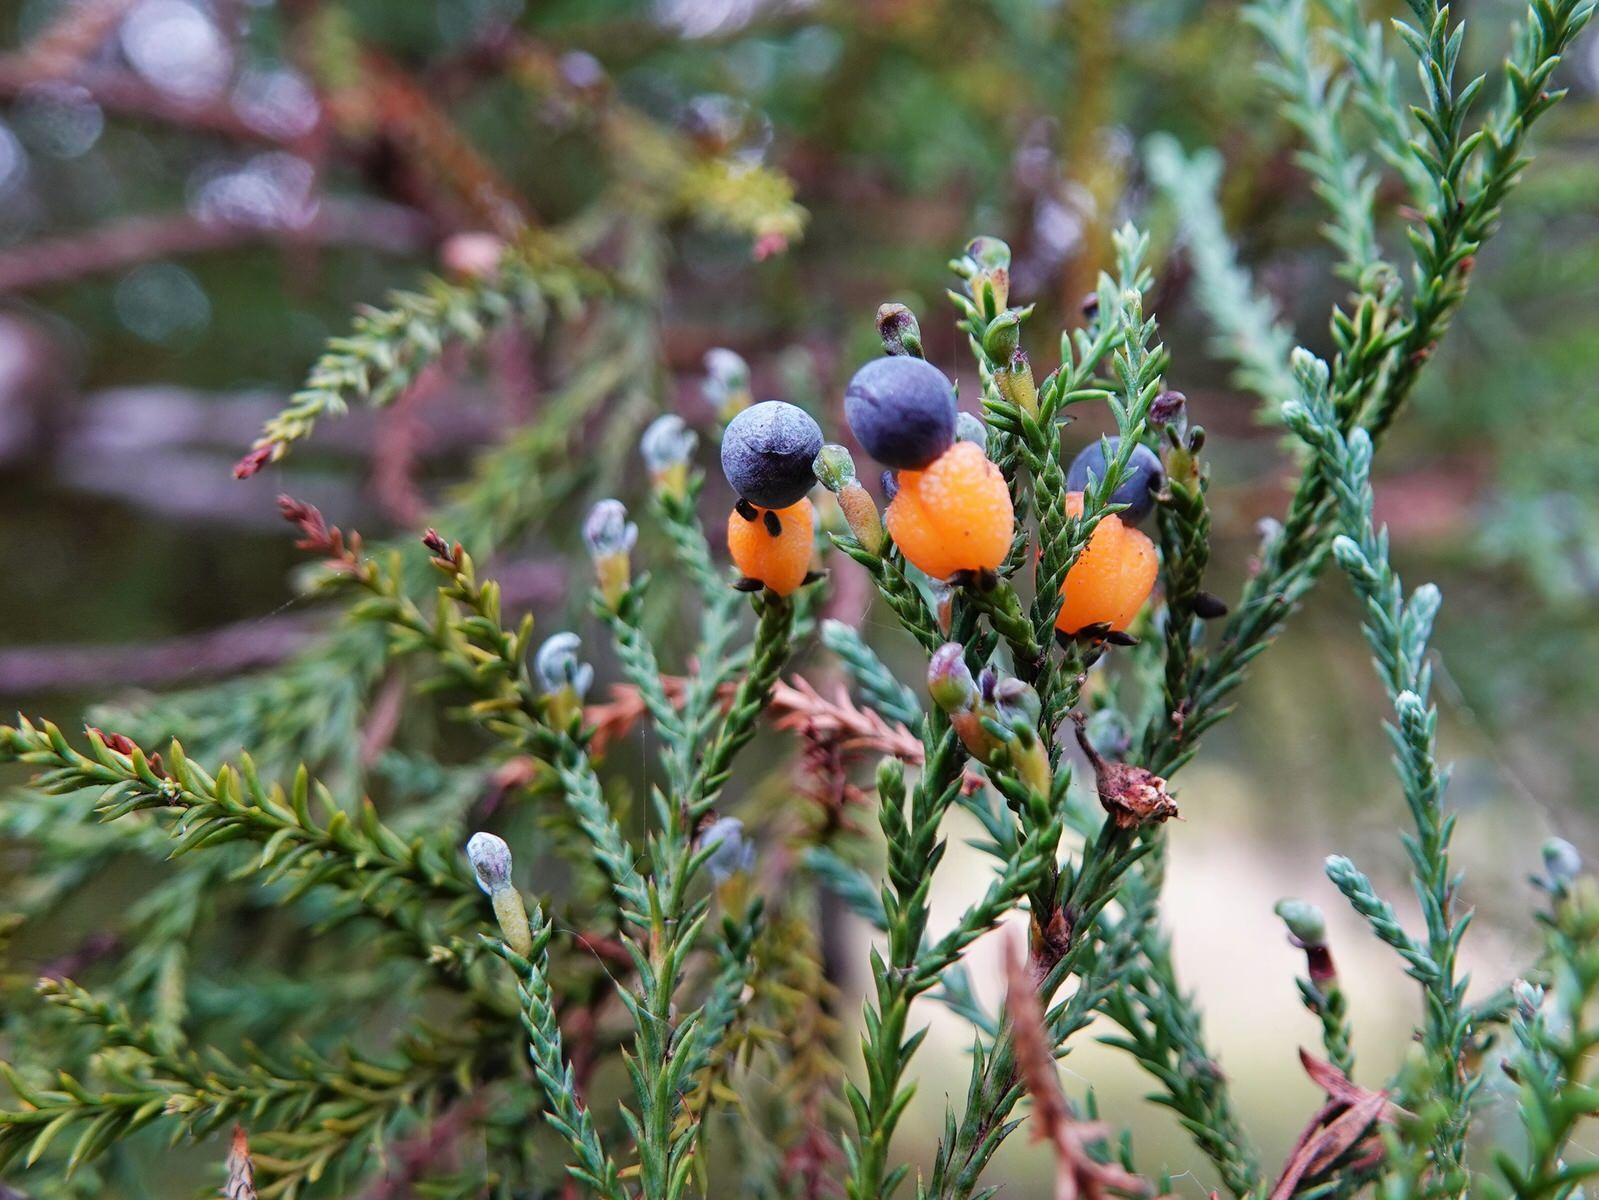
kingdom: Plantae
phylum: Tracheophyta
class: Pinopsida
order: Pinales
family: Podocarpaceae
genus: Dacrycarpus
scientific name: Dacrycarpus dacrydioides
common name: White pine
